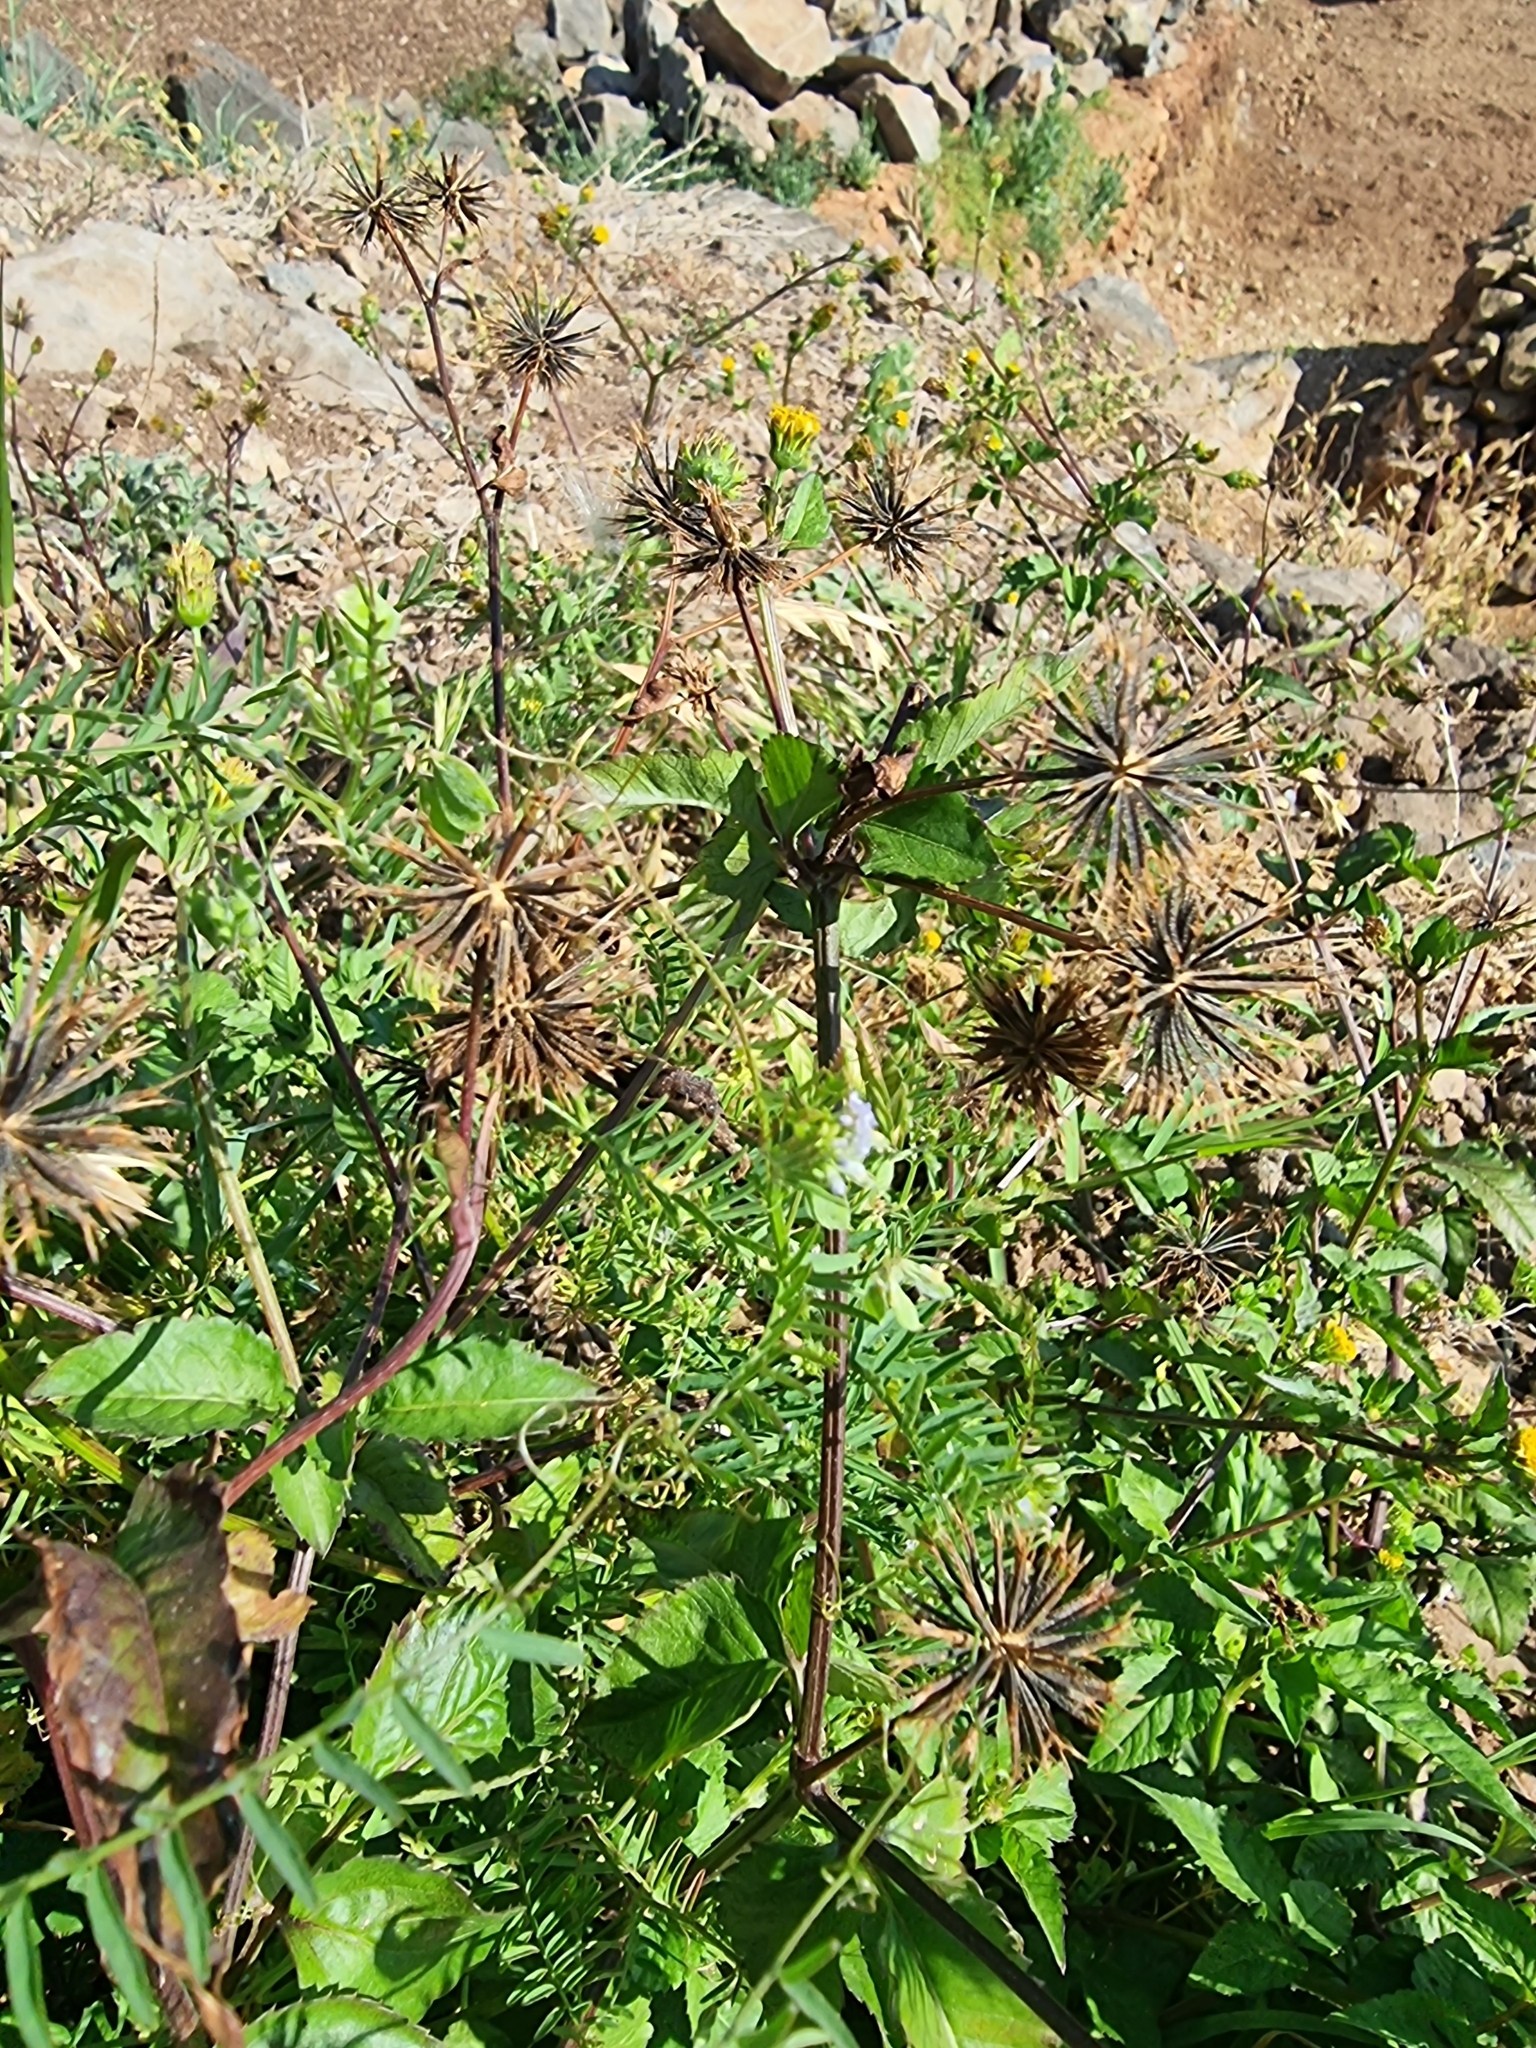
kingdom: Plantae
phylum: Tracheophyta
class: Magnoliopsida
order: Asterales
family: Asteraceae
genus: Bidens
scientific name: Bidens pilosa
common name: Black-jack
